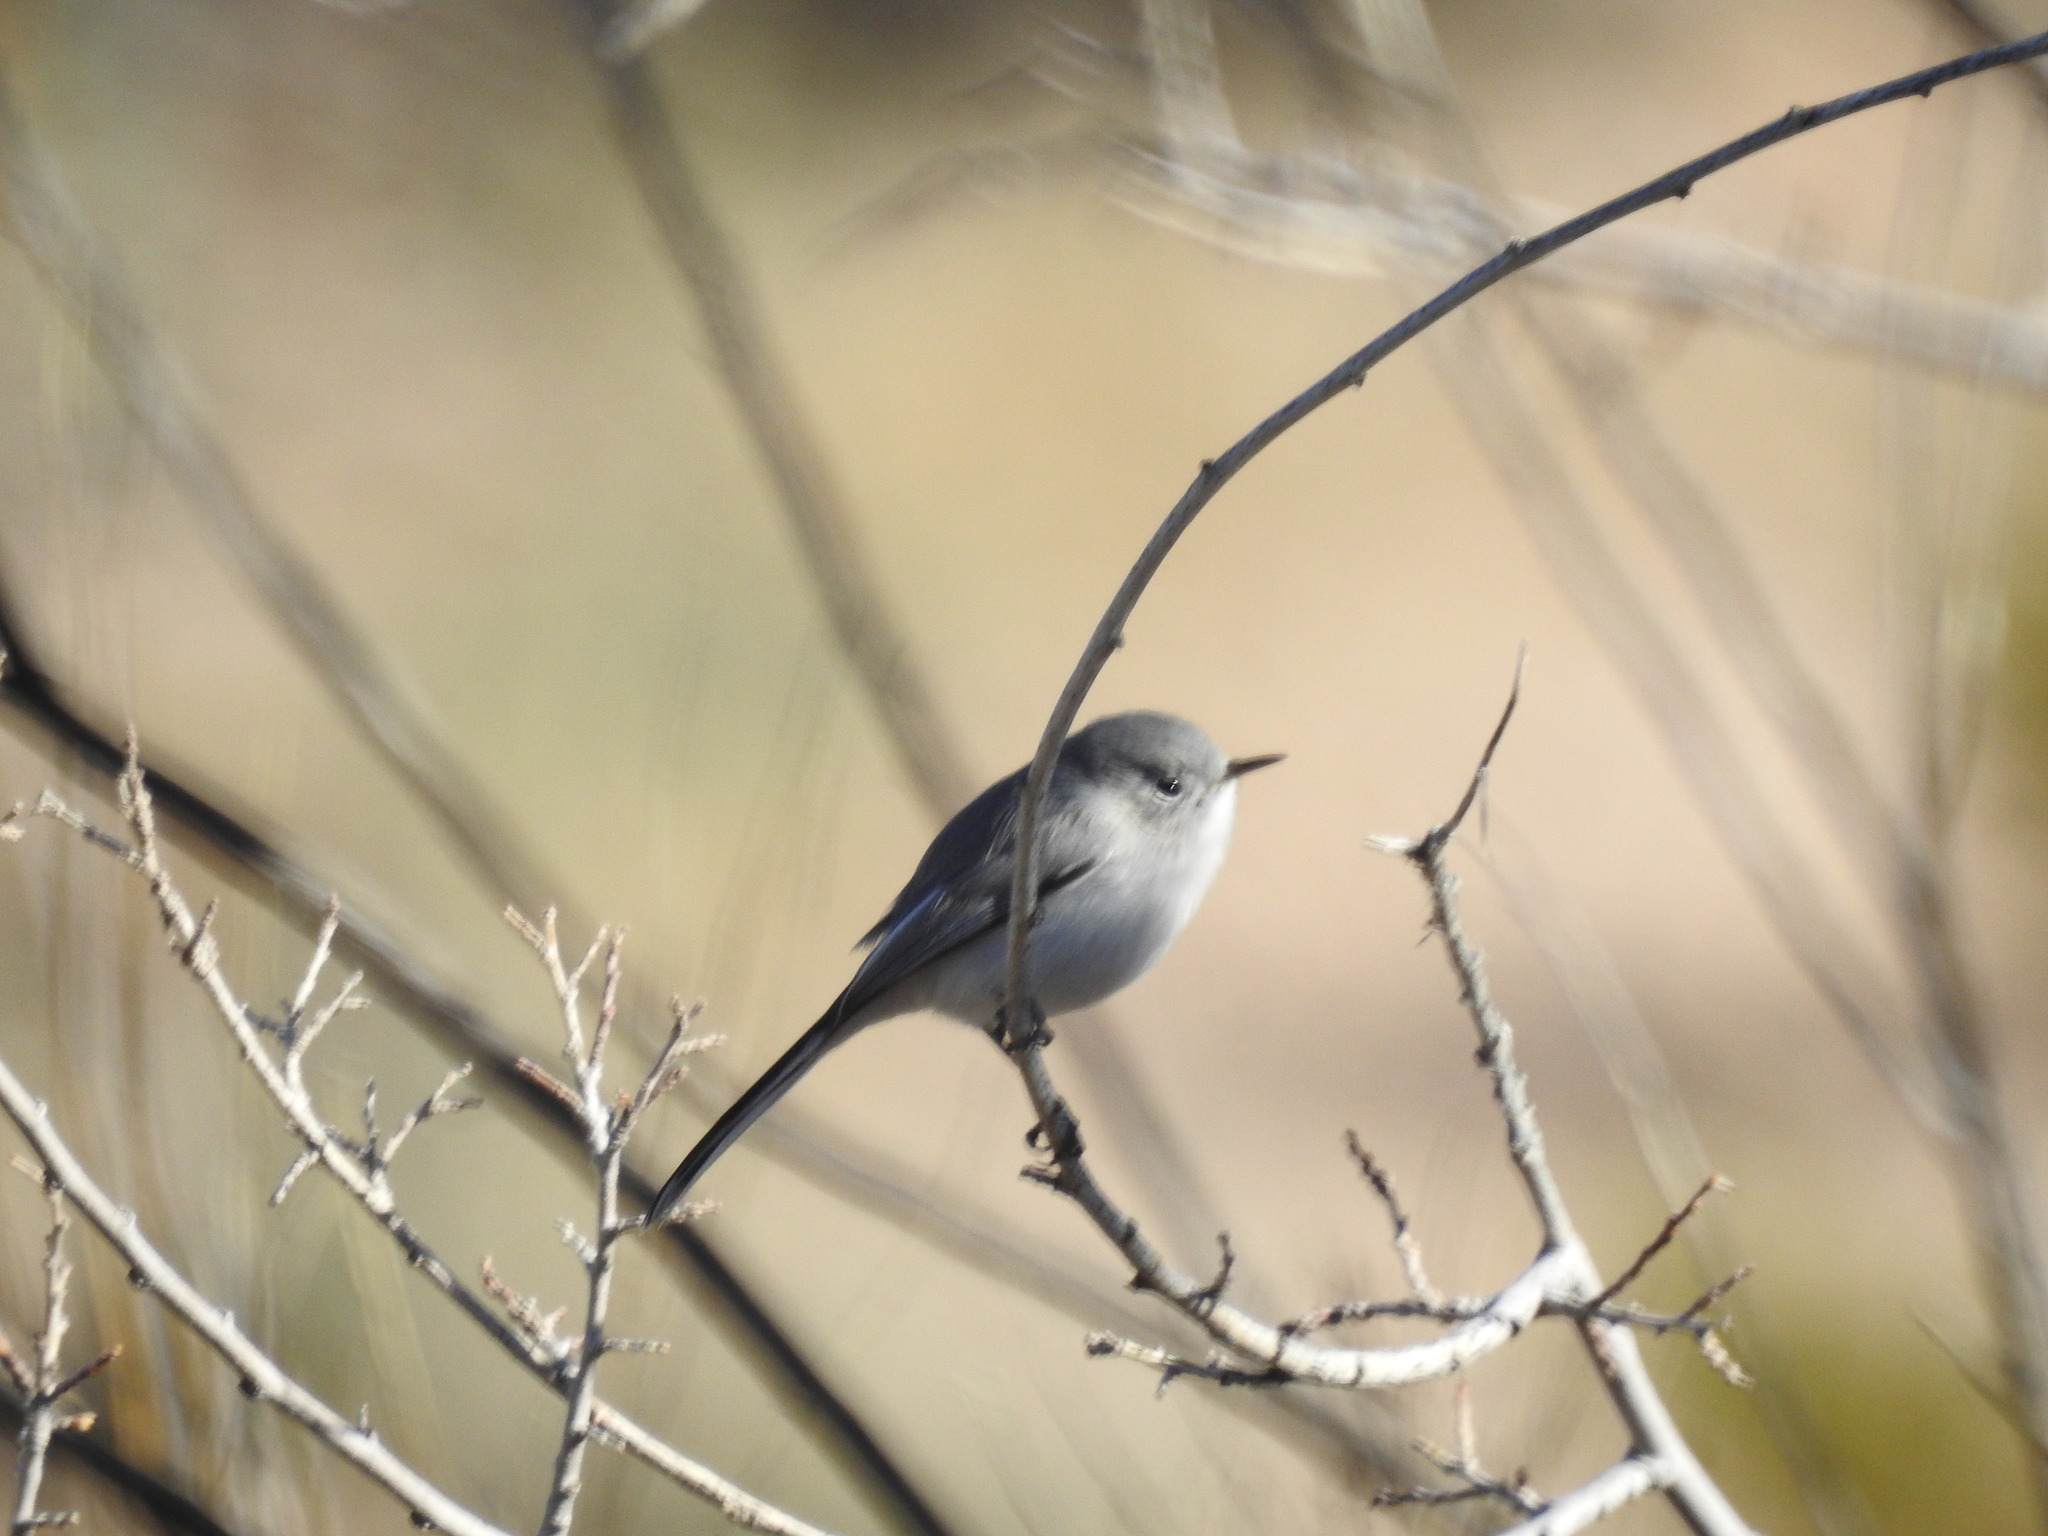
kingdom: Animalia
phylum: Chordata
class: Aves
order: Passeriformes
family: Polioptilidae
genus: Polioptila
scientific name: Polioptila caerulea
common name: Blue-gray gnatcatcher
